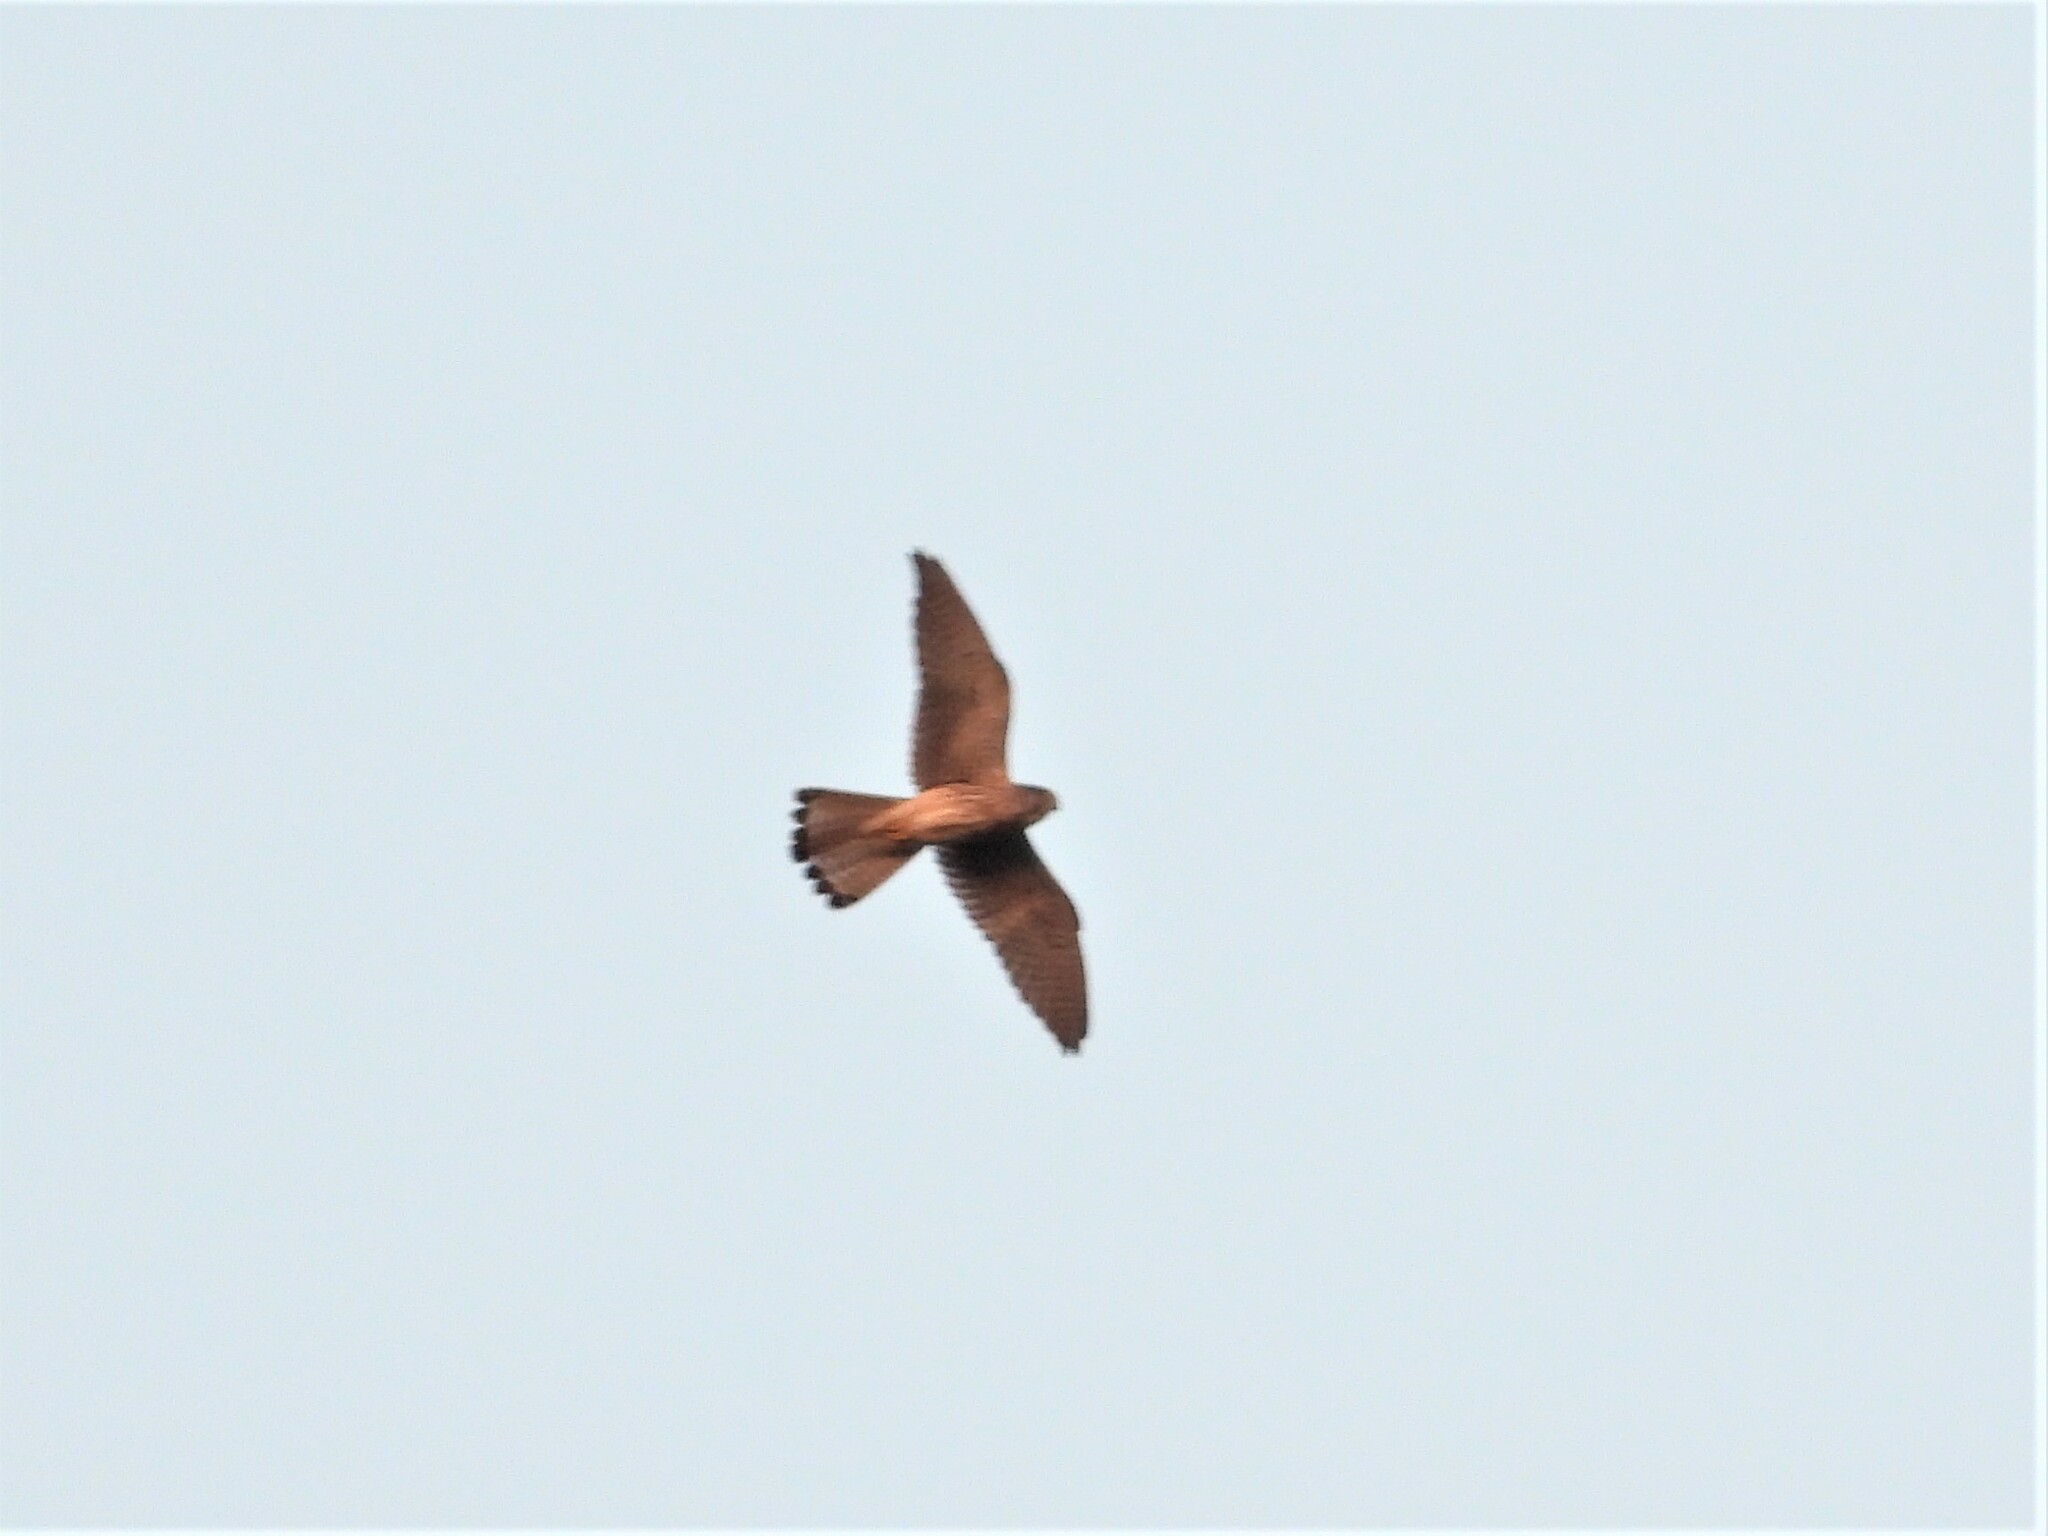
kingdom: Animalia
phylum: Chordata
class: Aves
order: Falconiformes
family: Falconidae
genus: Falco
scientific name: Falco tinnunculus
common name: Common kestrel
